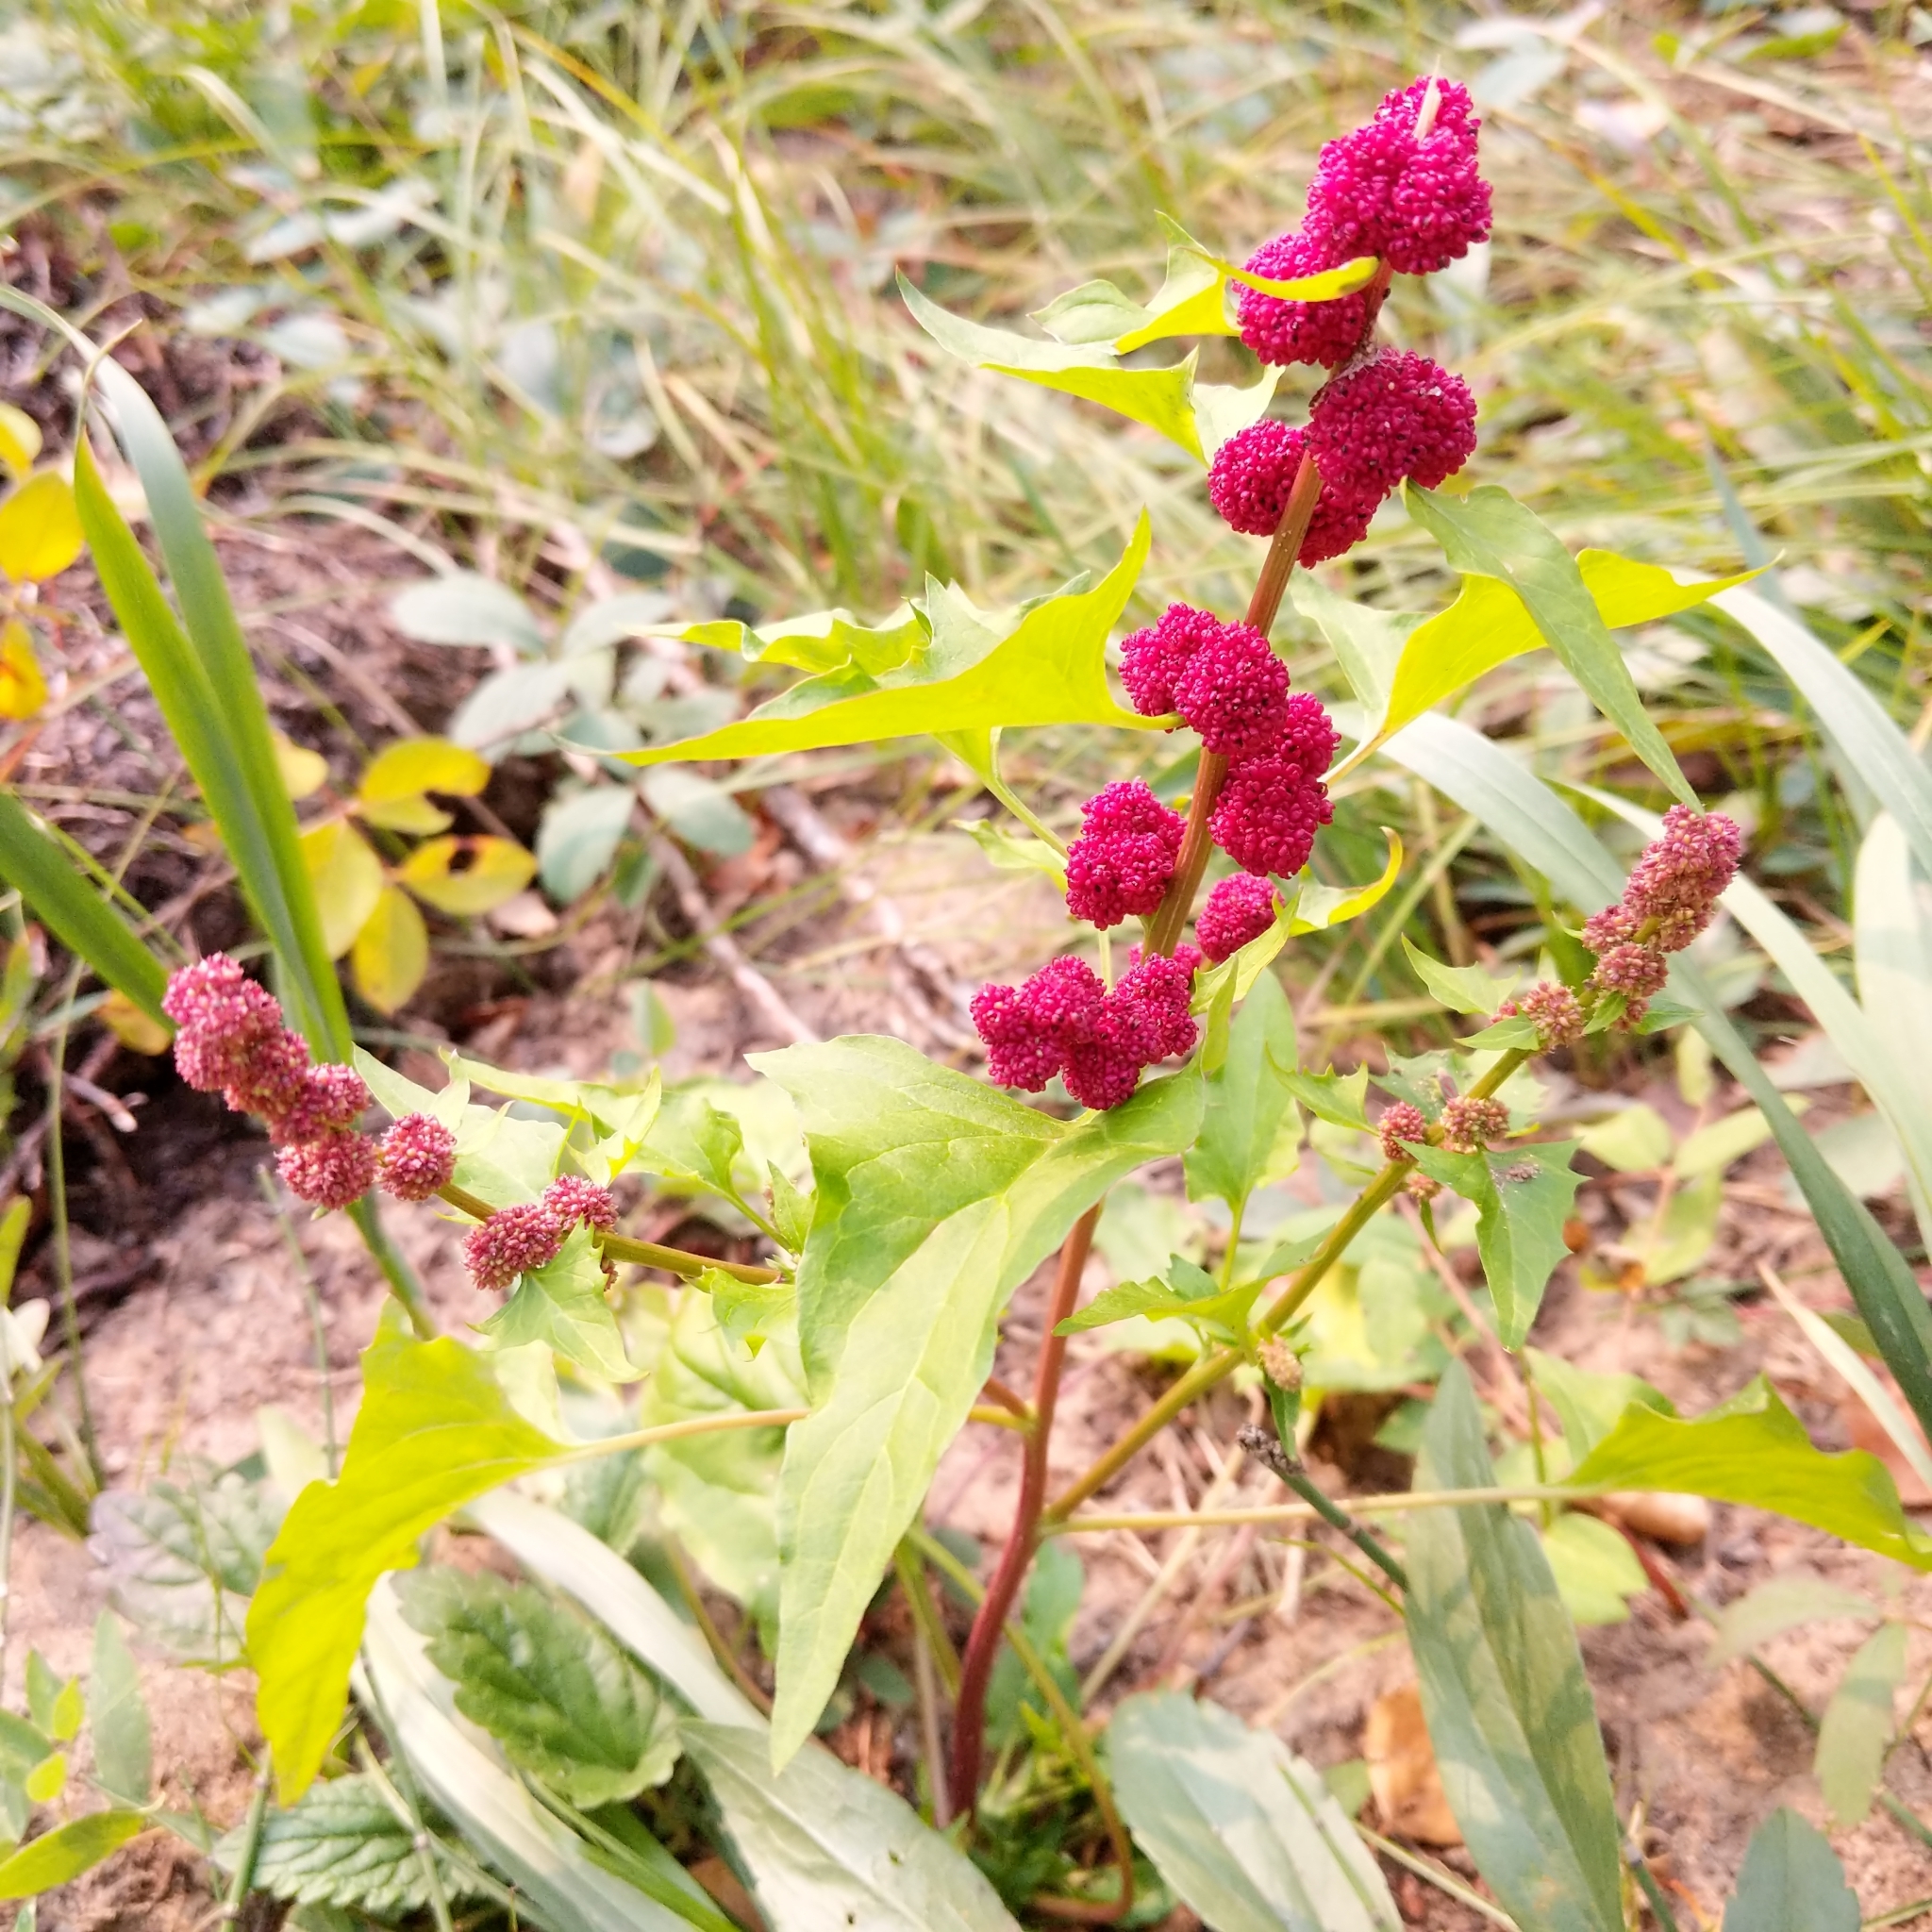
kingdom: Plantae
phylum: Tracheophyta
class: Magnoliopsida
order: Caryophyllales
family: Amaranthaceae
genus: Blitum
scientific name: Blitum capitatum
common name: Strawberry-blight
